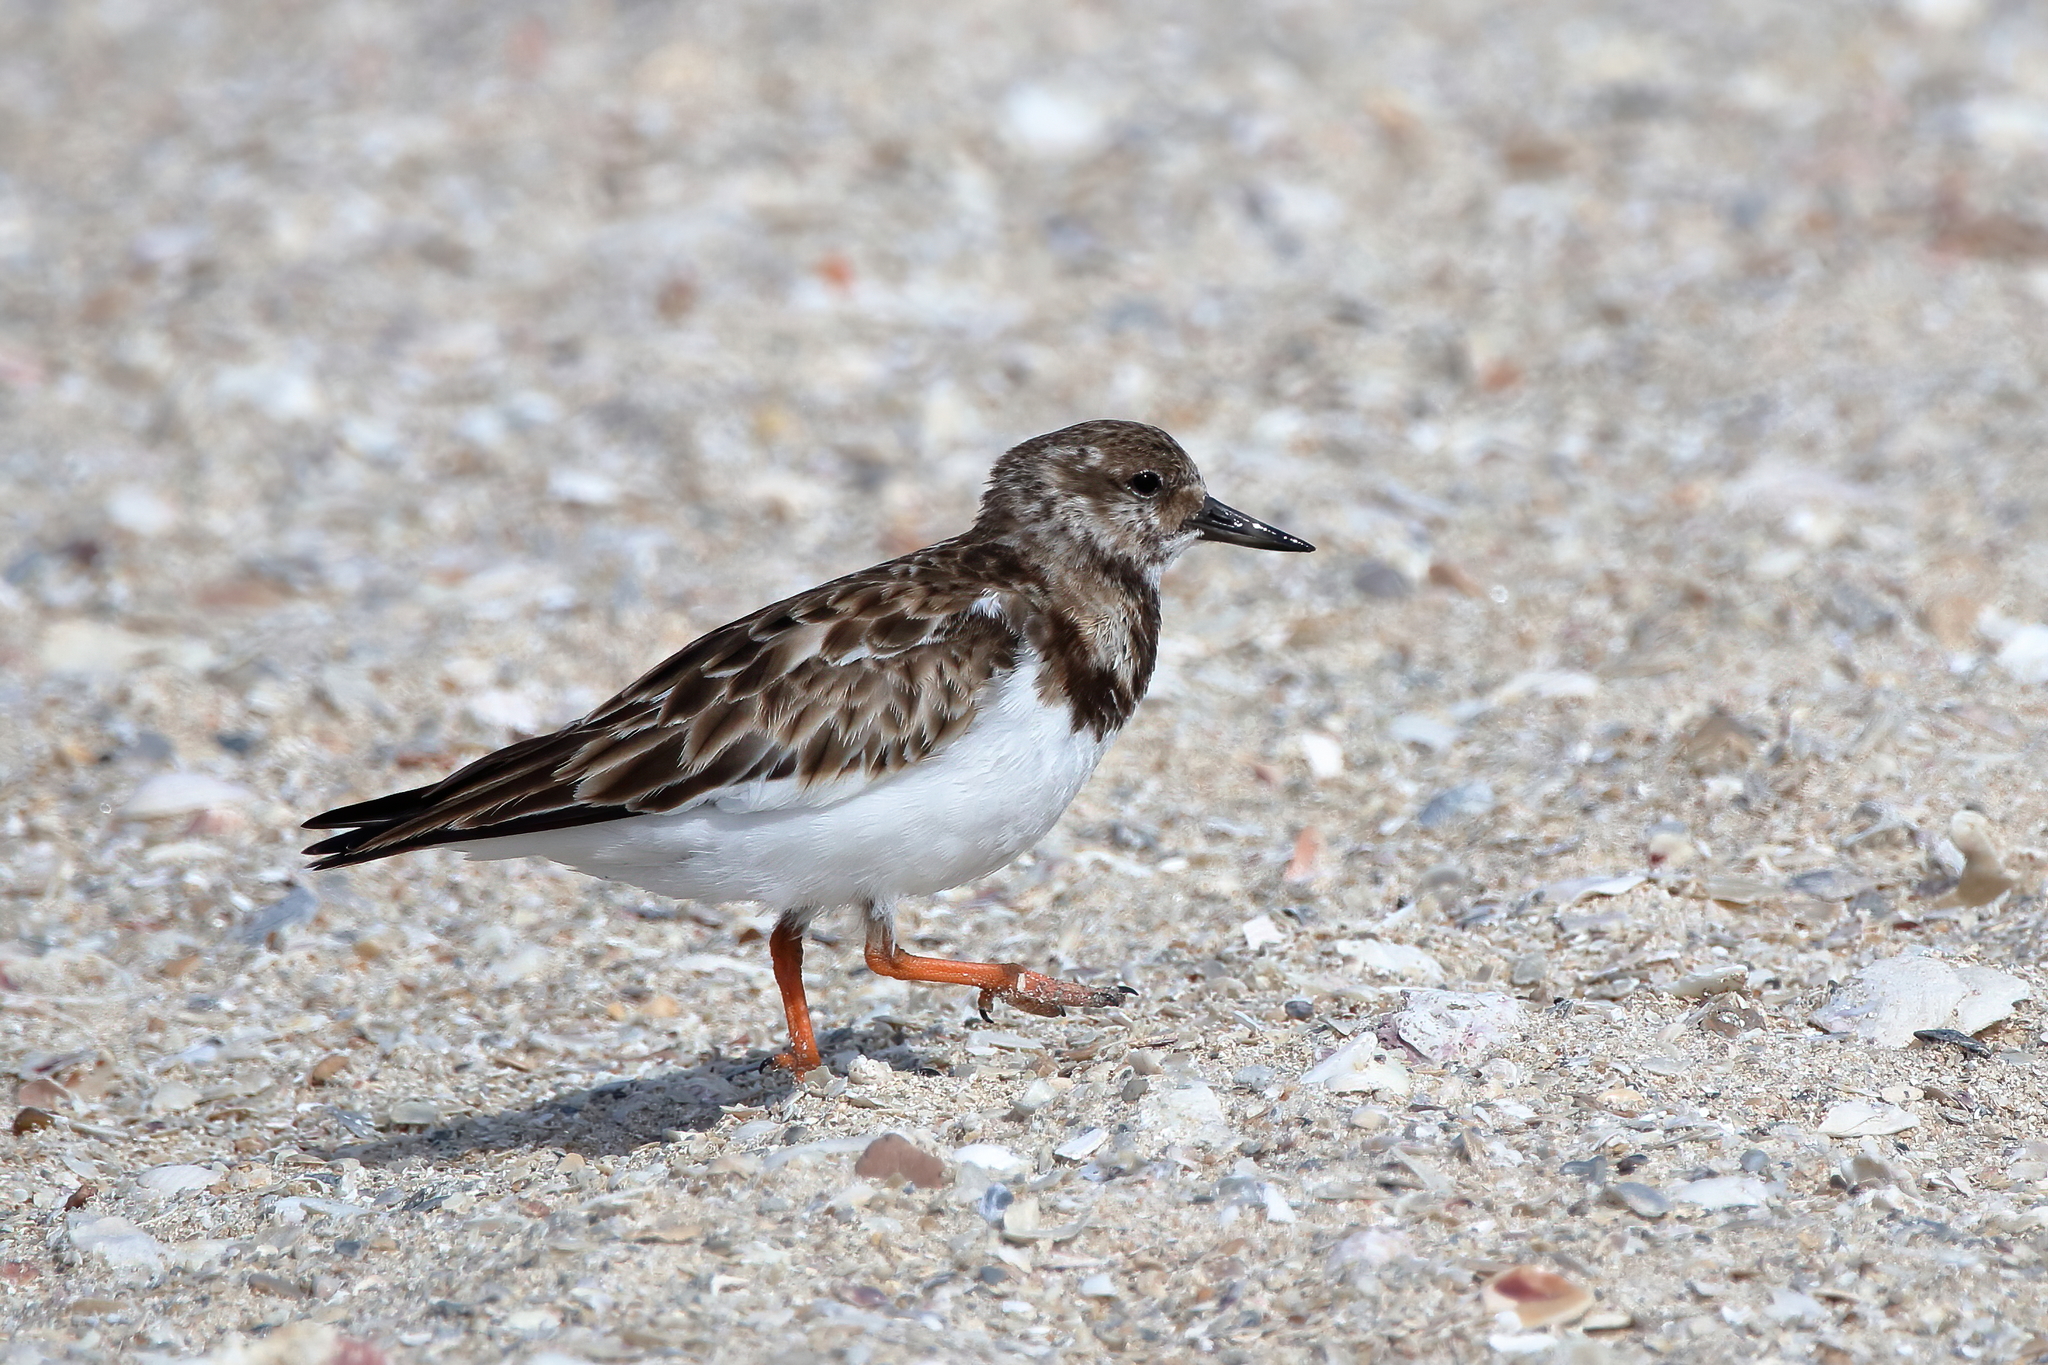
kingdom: Animalia
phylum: Chordata
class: Aves
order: Charadriiformes
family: Scolopacidae
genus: Arenaria
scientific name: Arenaria interpres
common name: Ruddy turnstone
